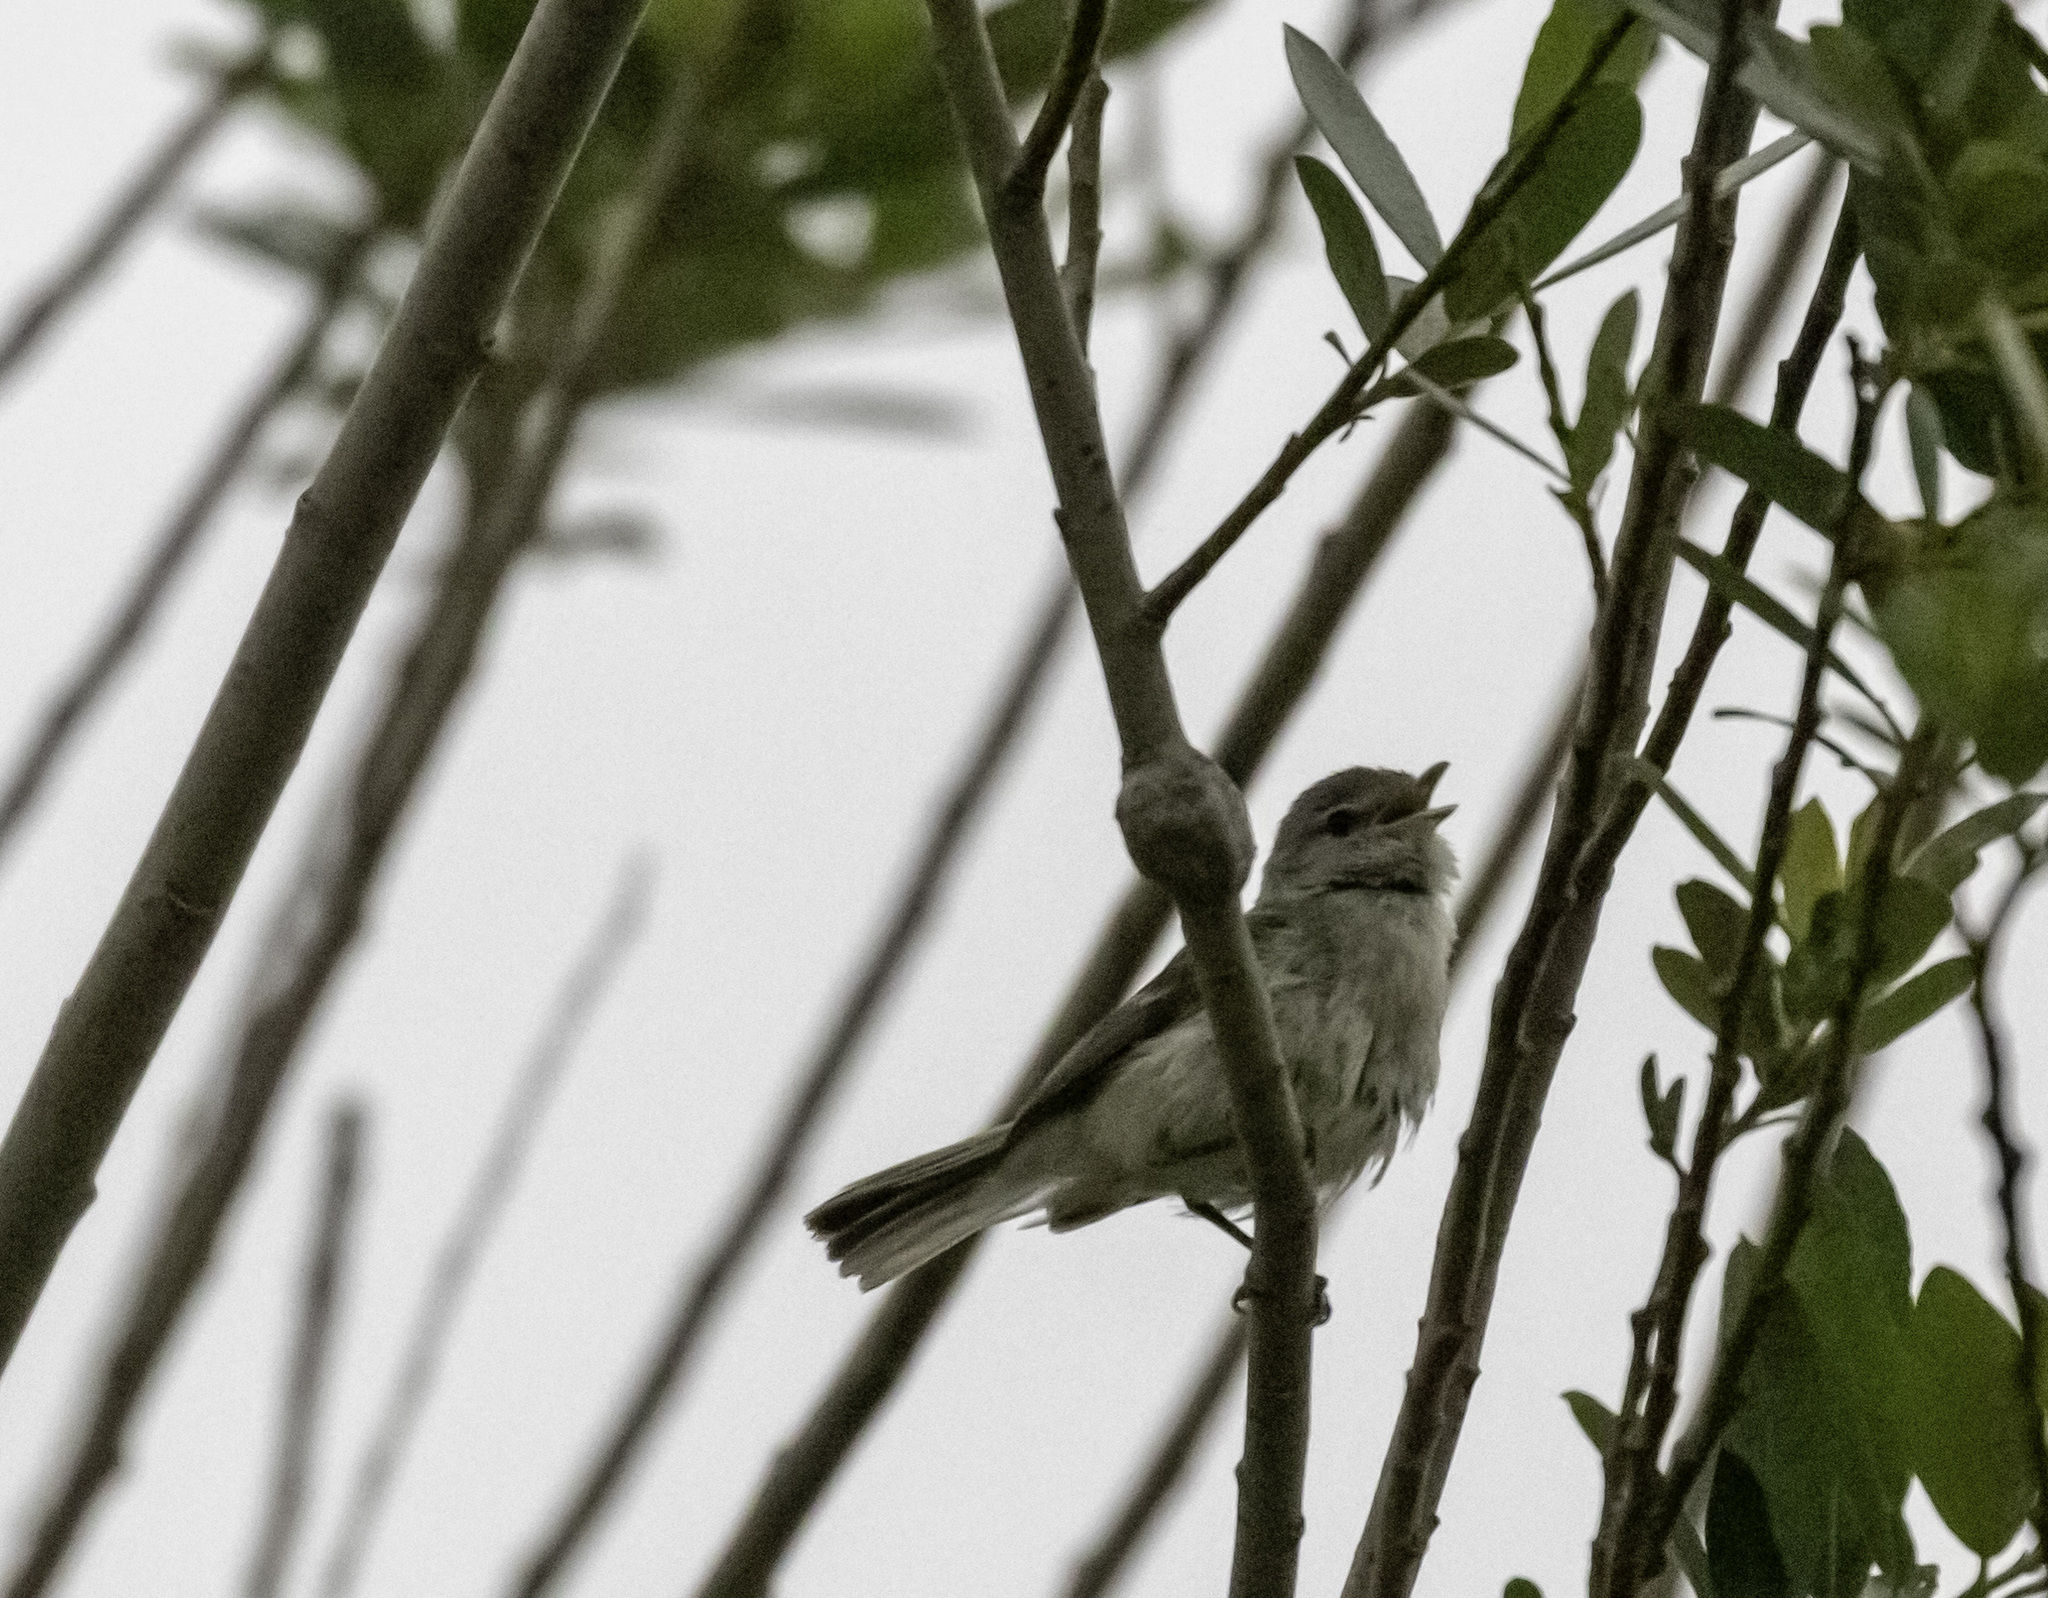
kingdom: Animalia
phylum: Chordata
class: Aves
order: Passeriformes
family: Vireonidae
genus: Vireo
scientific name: Vireo bellii
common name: Bell's vireo
